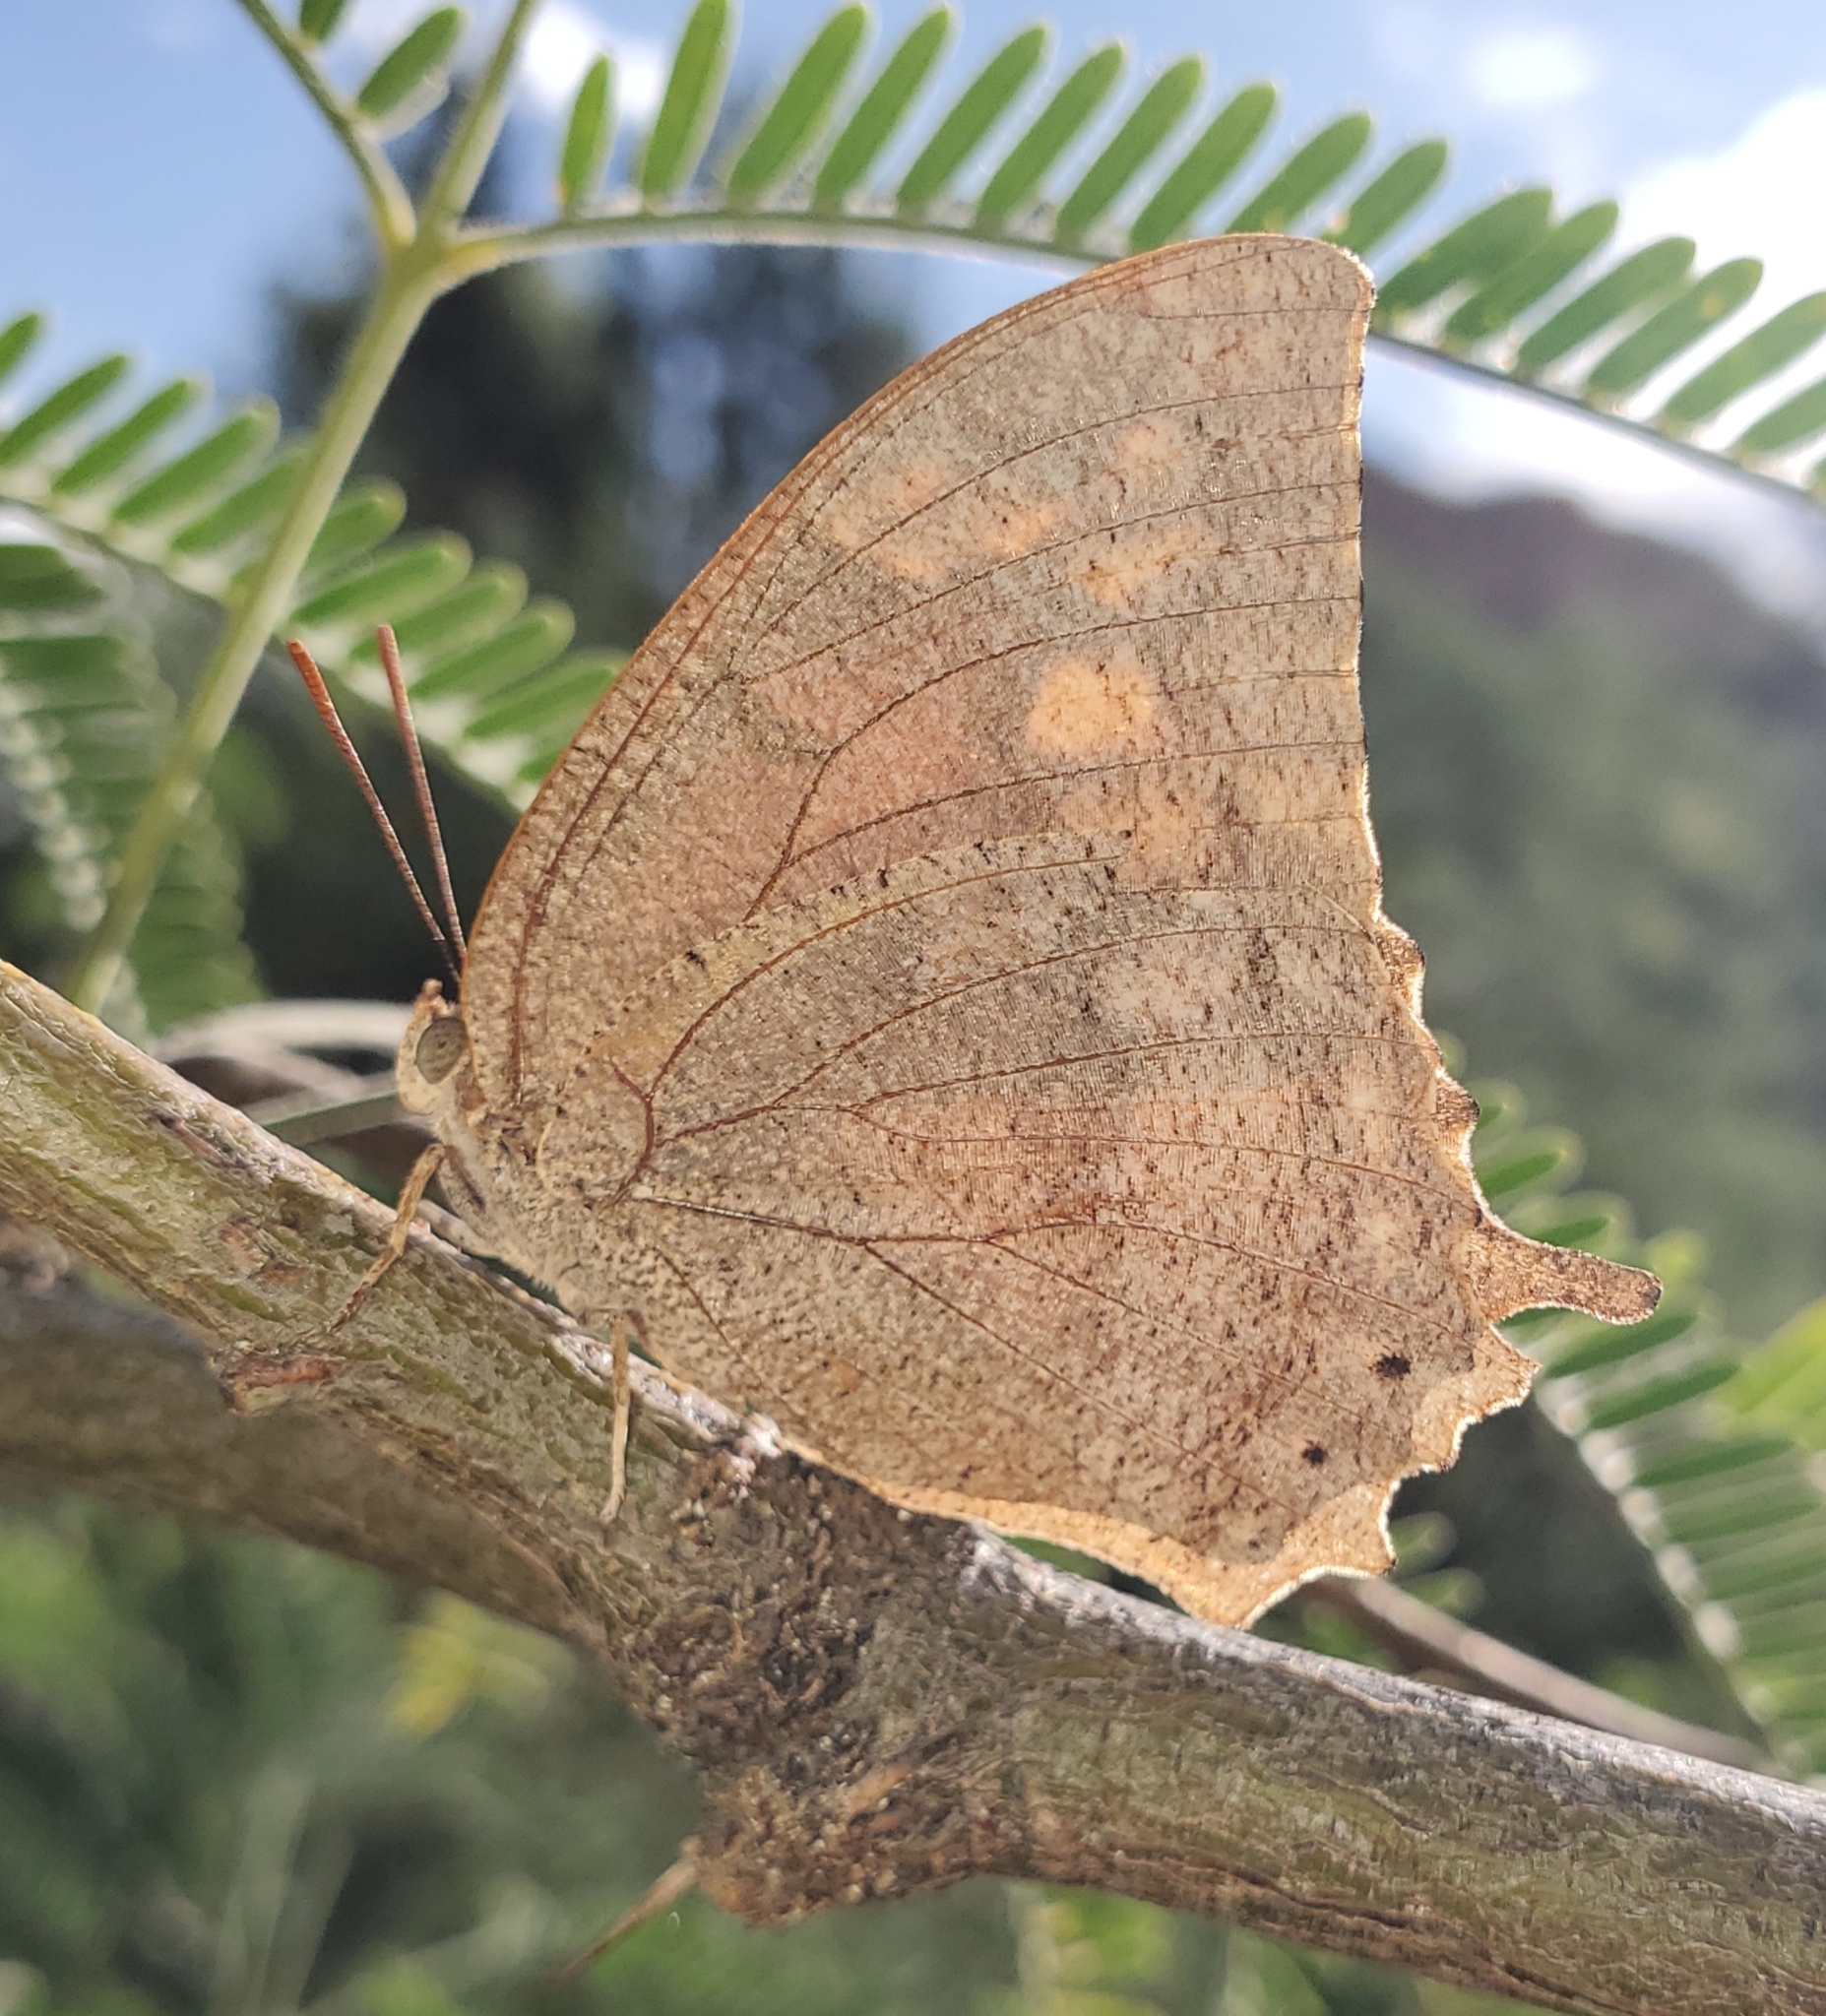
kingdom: Animalia
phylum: Arthropoda
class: Insecta
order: Lepidoptera
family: Nymphalidae
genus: Anaea
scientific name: Anaea aidea
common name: Tropical leafwing
